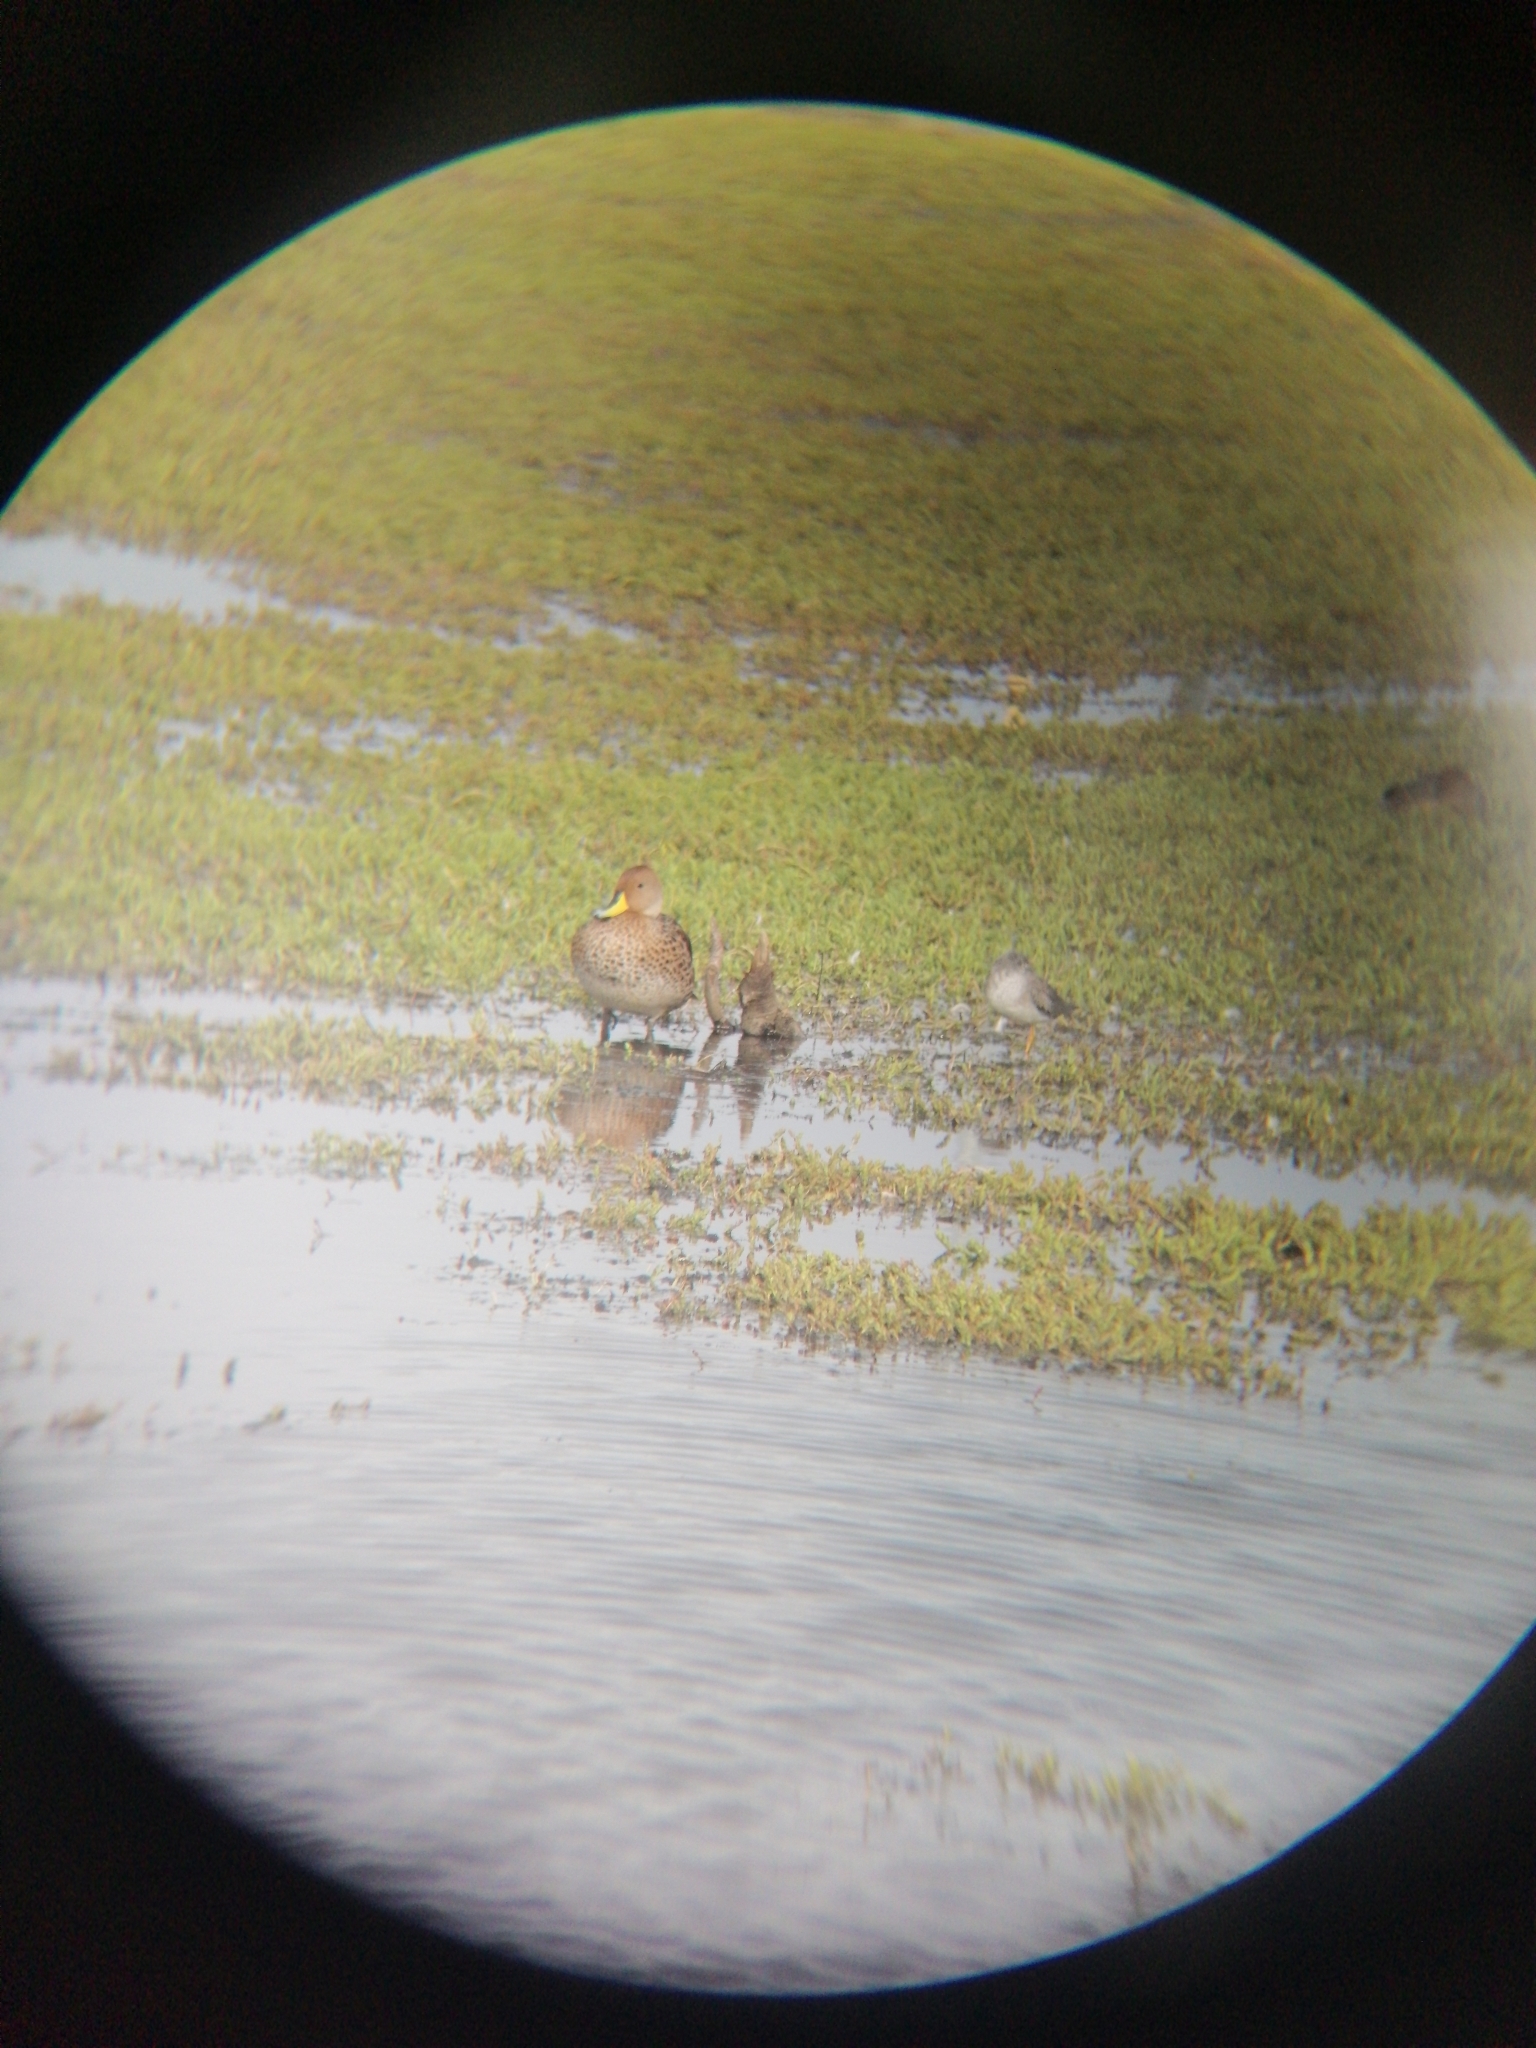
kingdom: Animalia
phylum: Chordata
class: Aves
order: Anseriformes
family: Anatidae
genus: Anas
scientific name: Anas georgica
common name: Yellow-billed pintail
